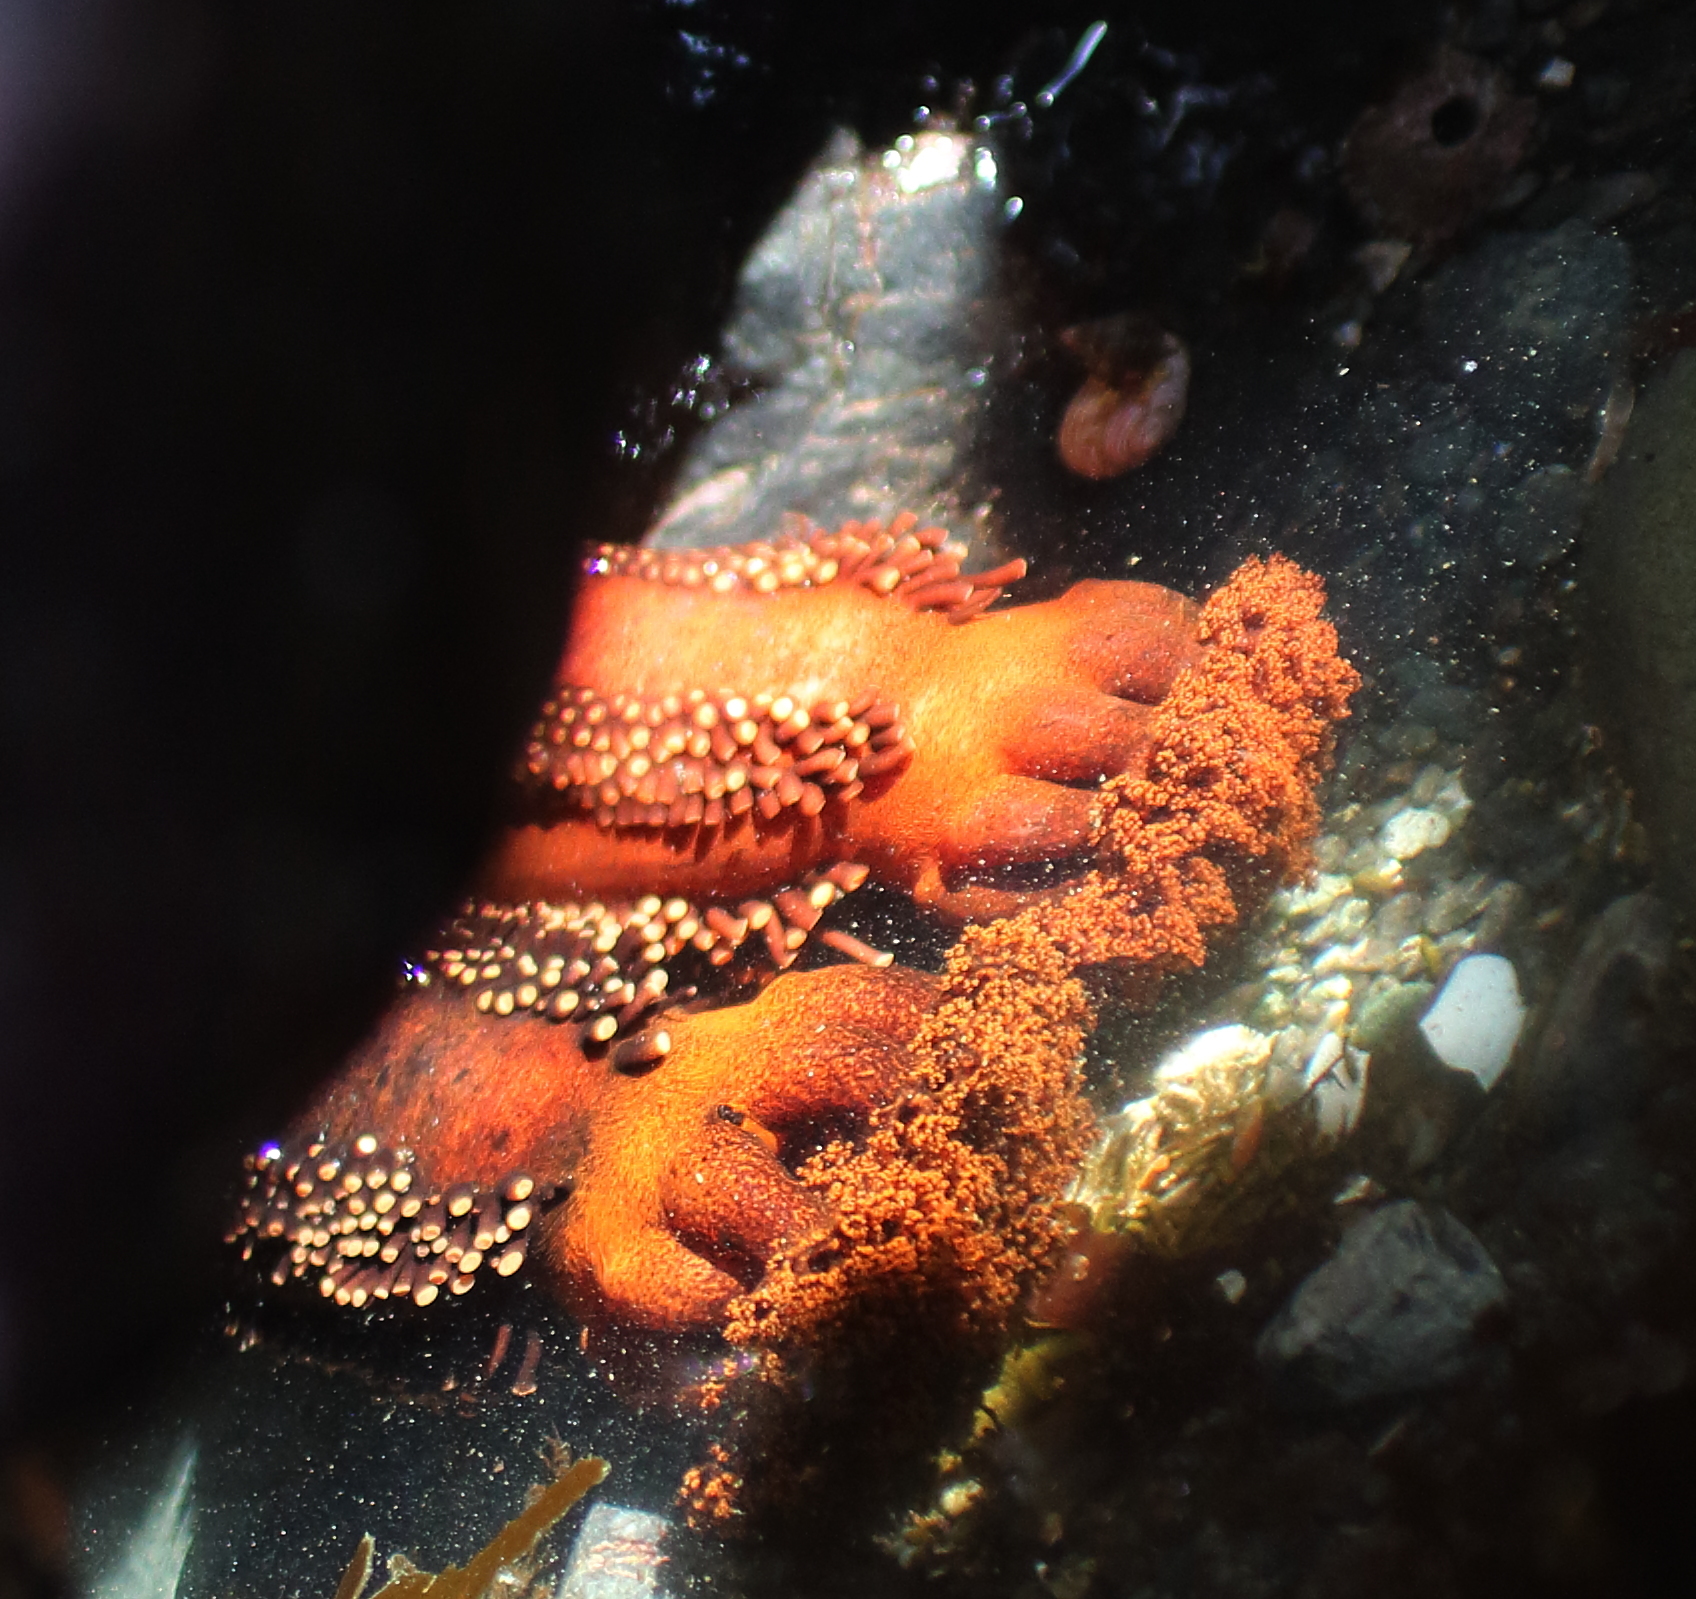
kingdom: Animalia
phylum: Echinodermata
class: Holothuroidea
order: Dendrochirotida
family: Cucumariidae
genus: Cucumaria
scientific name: Cucumaria miniata
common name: Orange sea cucumber
